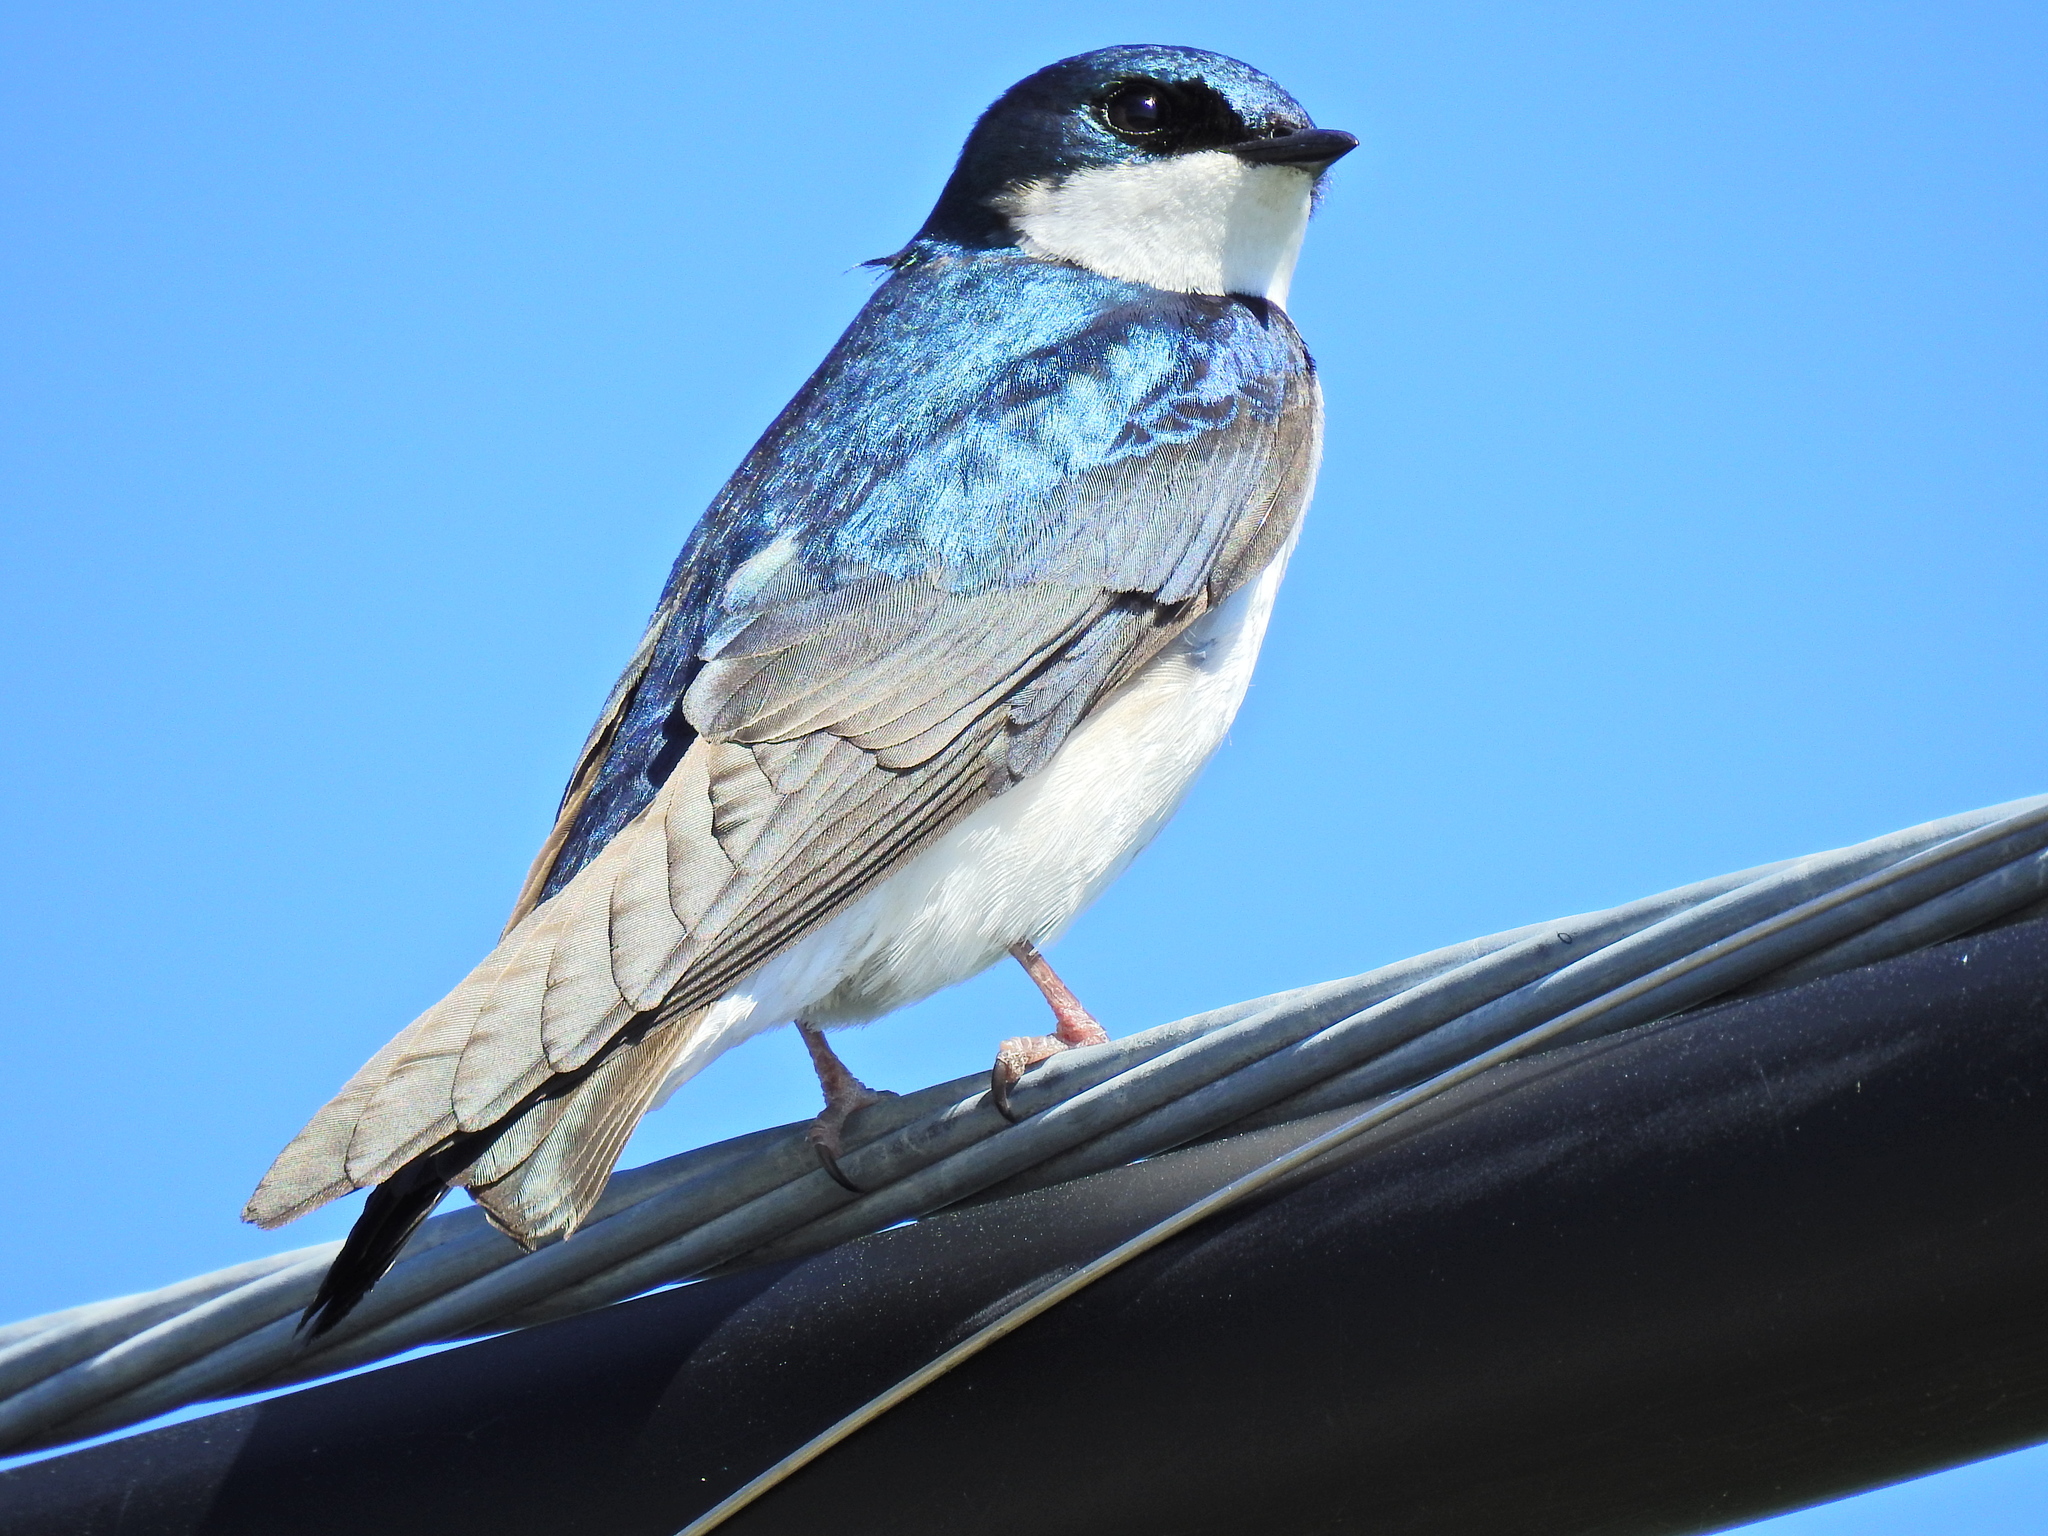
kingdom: Animalia
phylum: Chordata
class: Aves
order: Passeriformes
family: Hirundinidae
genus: Tachycineta
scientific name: Tachycineta bicolor
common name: Tree swallow
